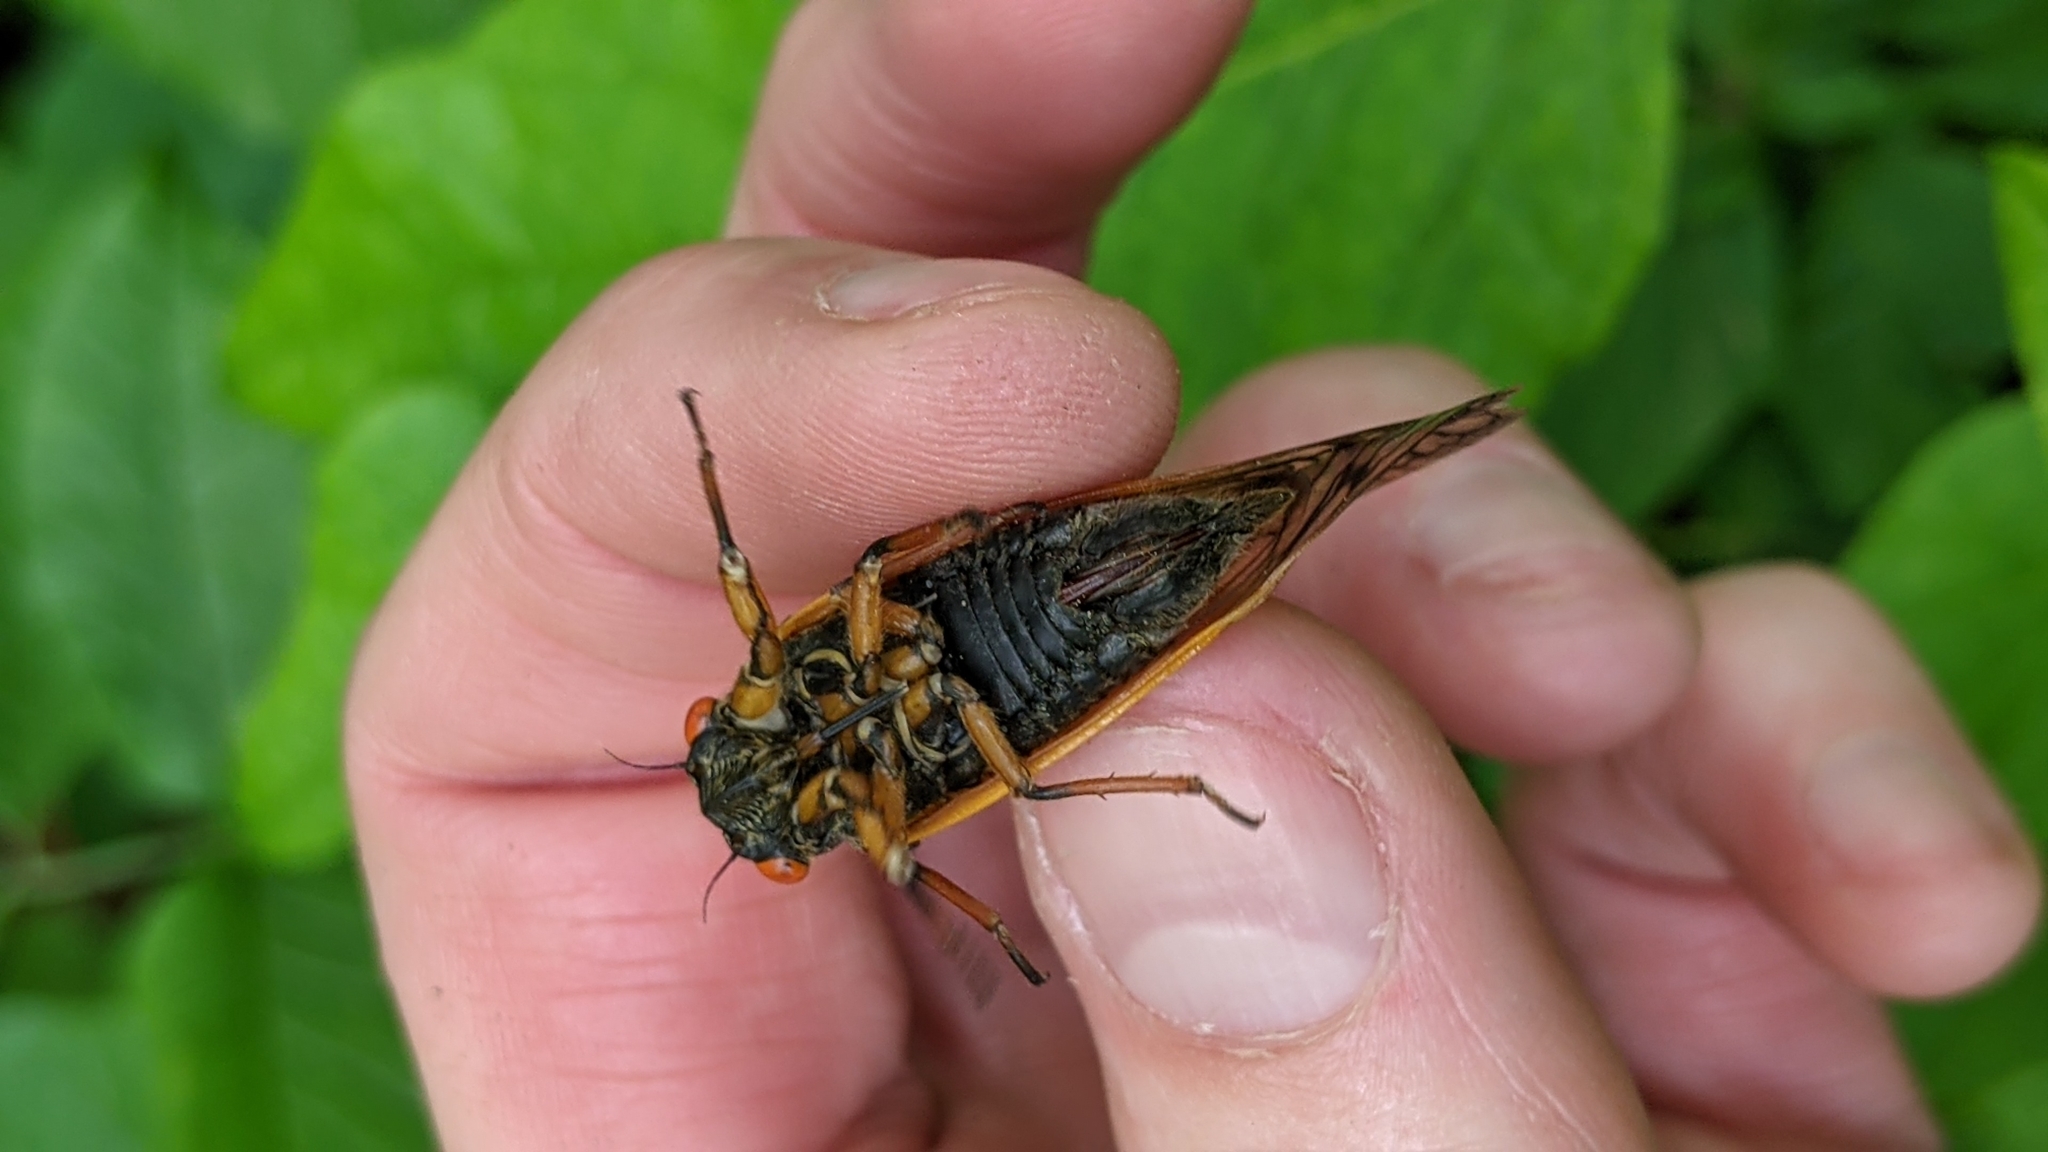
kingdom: Animalia
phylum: Arthropoda
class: Insecta
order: Hemiptera
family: Cicadidae
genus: Magicicada
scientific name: Magicicada cassini
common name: Cassin's 17-year cicada
